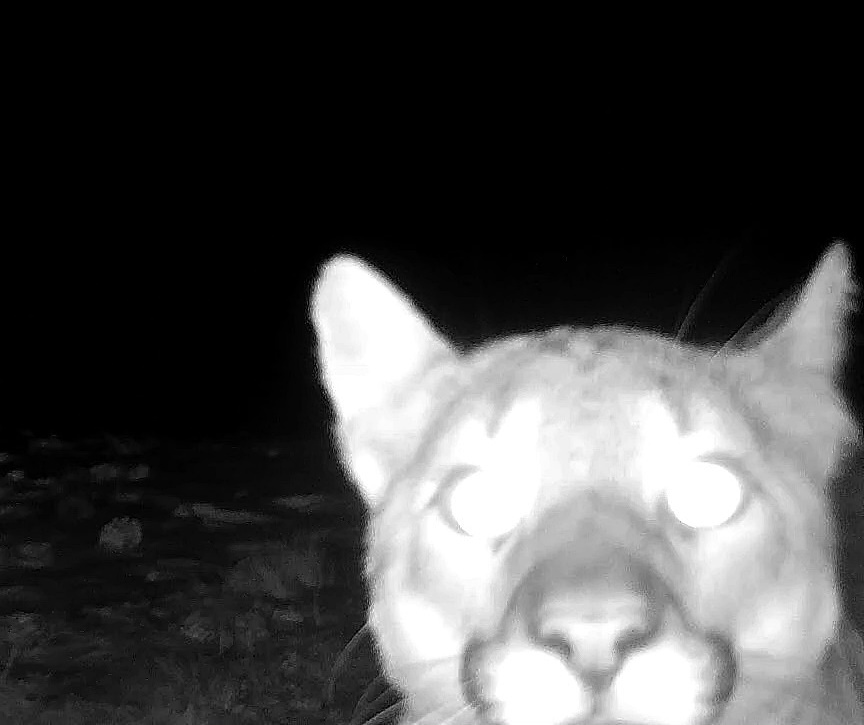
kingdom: Animalia
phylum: Chordata
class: Mammalia
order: Carnivora
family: Felidae
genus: Puma
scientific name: Puma concolor
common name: Puma
